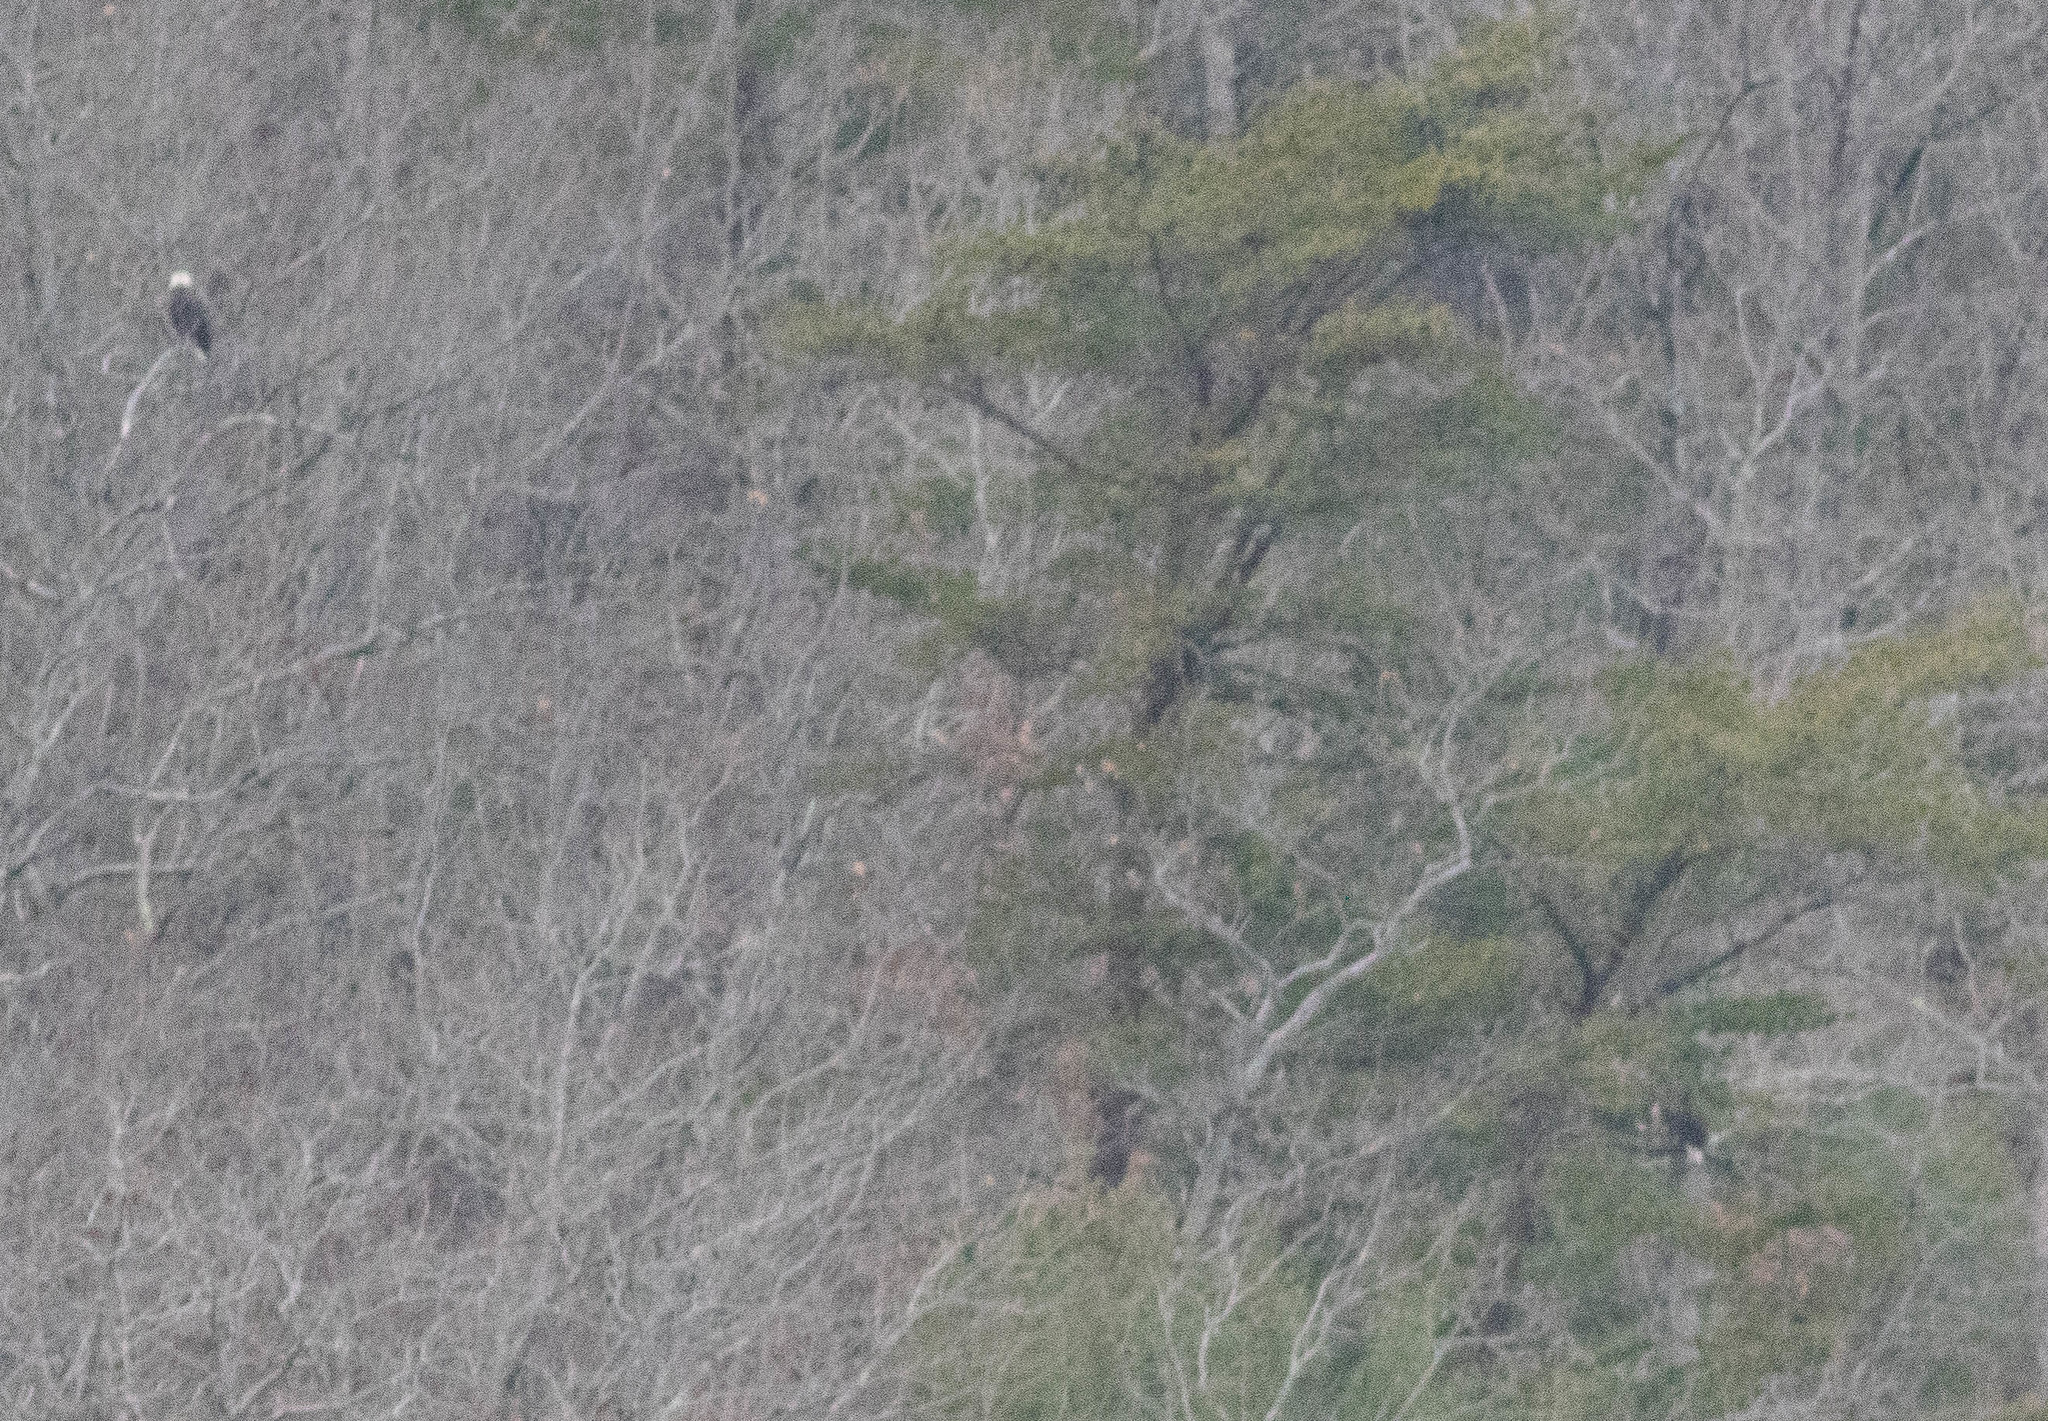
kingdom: Animalia
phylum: Chordata
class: Aves
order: Accipitriformes
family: Accipitridae
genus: Haliaeetus
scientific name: Haliaeetus leucocephalus
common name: Bald eagle
